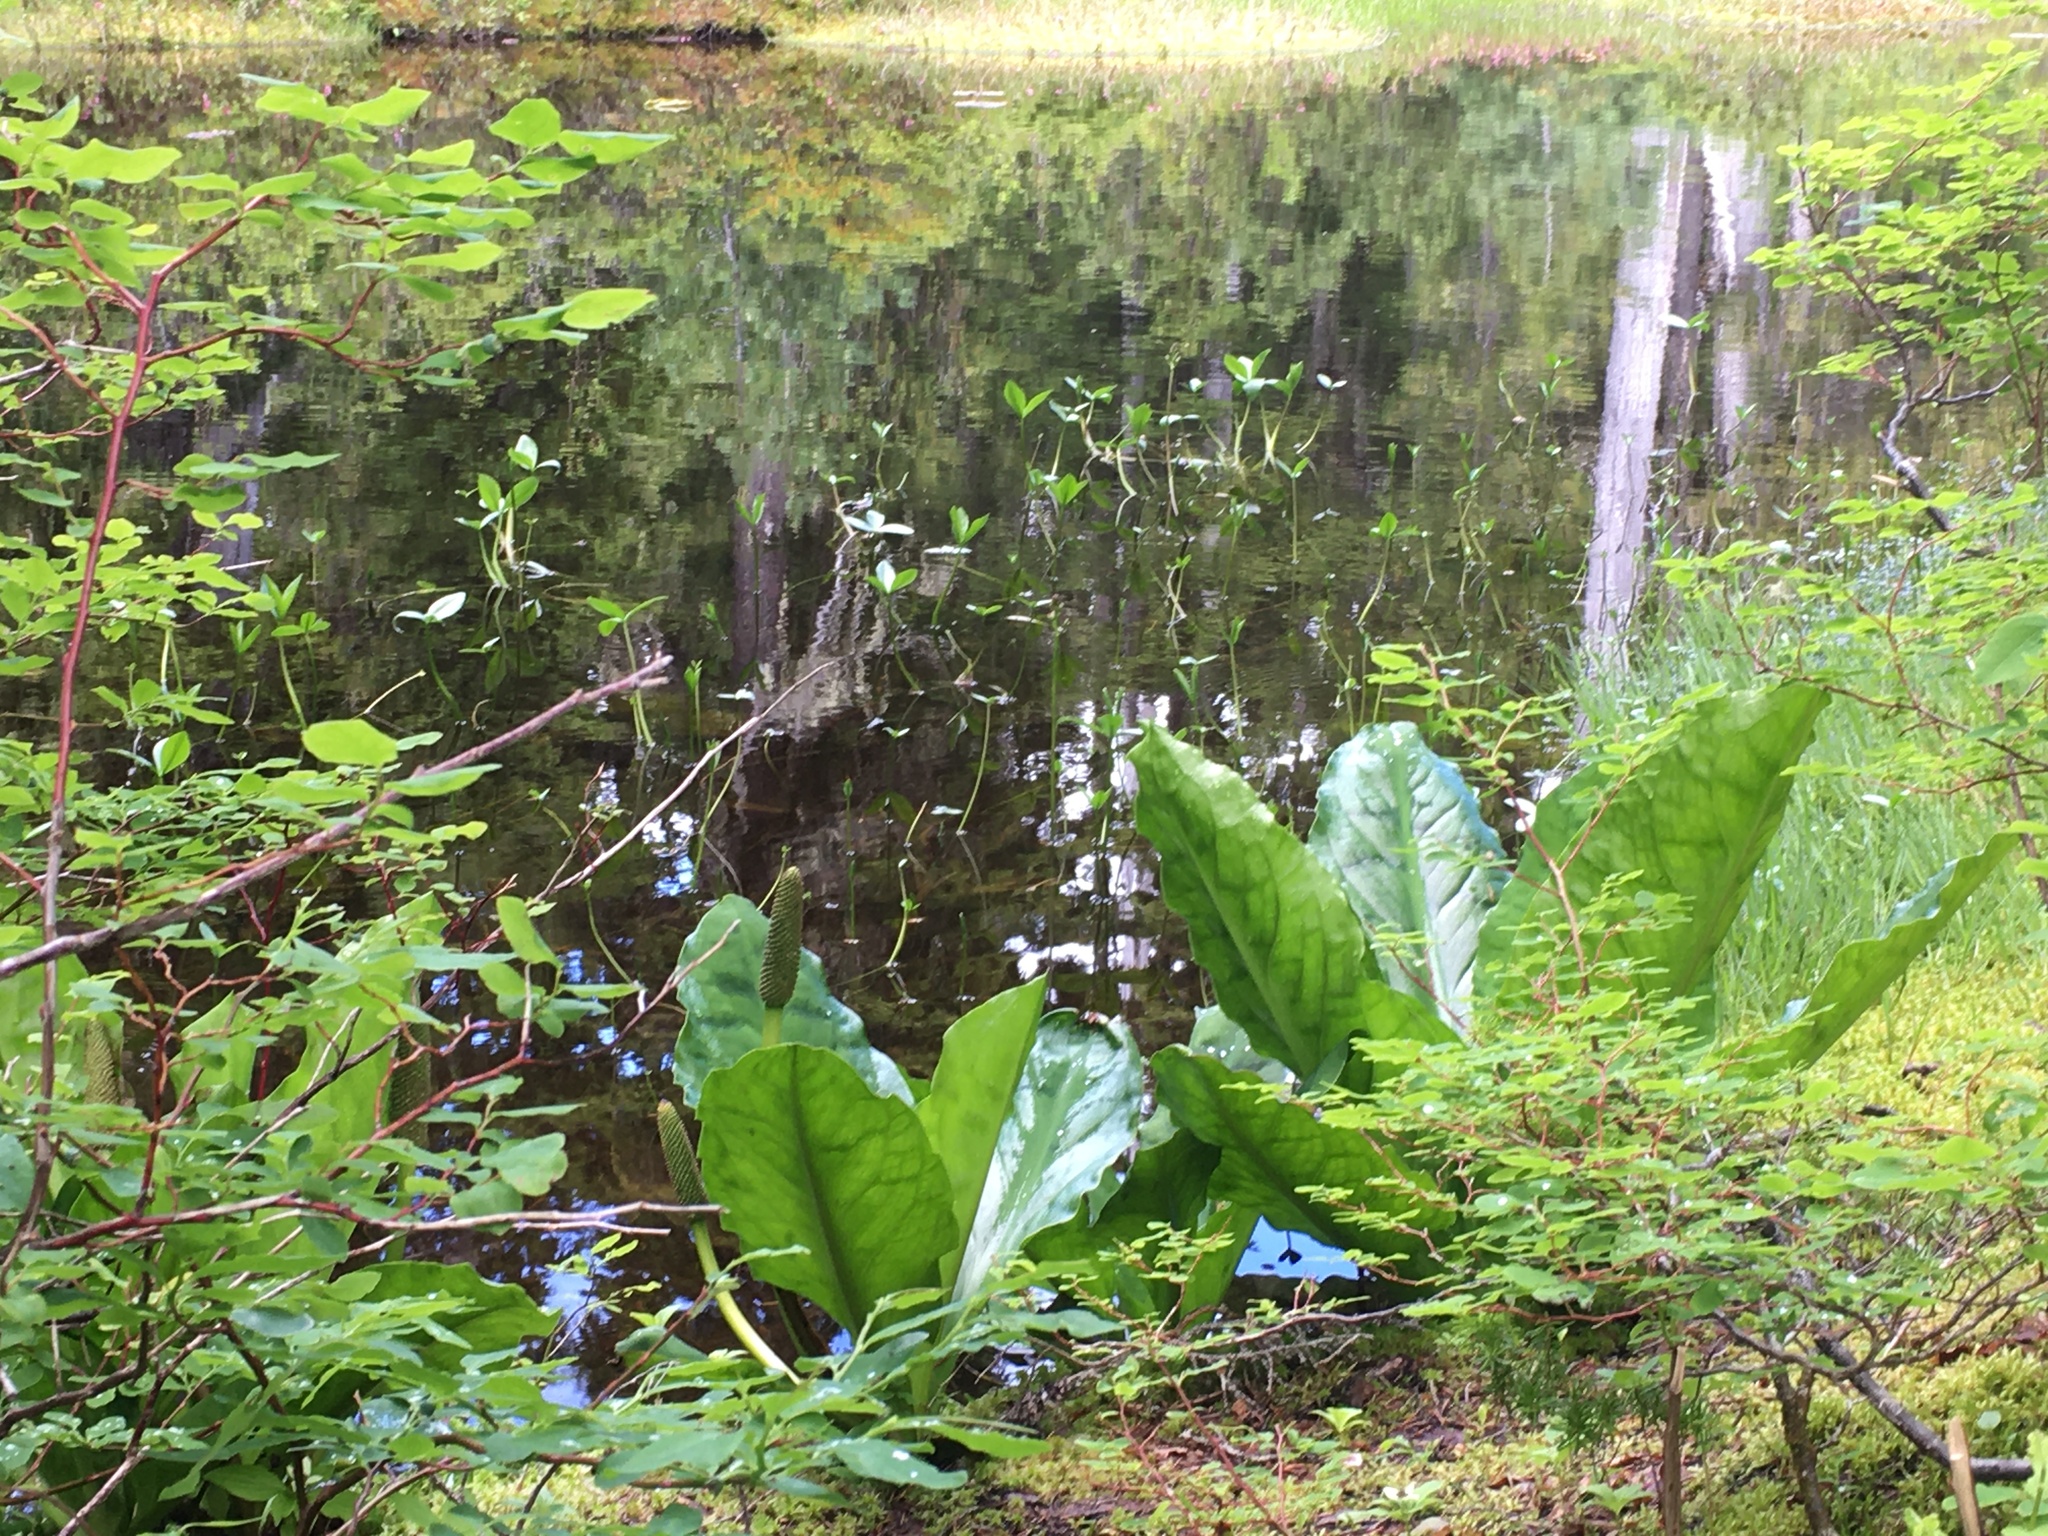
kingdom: Plantae
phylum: Tracheophyta
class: Liliopsida
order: Alismatales
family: Araceae
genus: Lysichiton
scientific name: Lysichiton americanus
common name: American skunk cabbage
